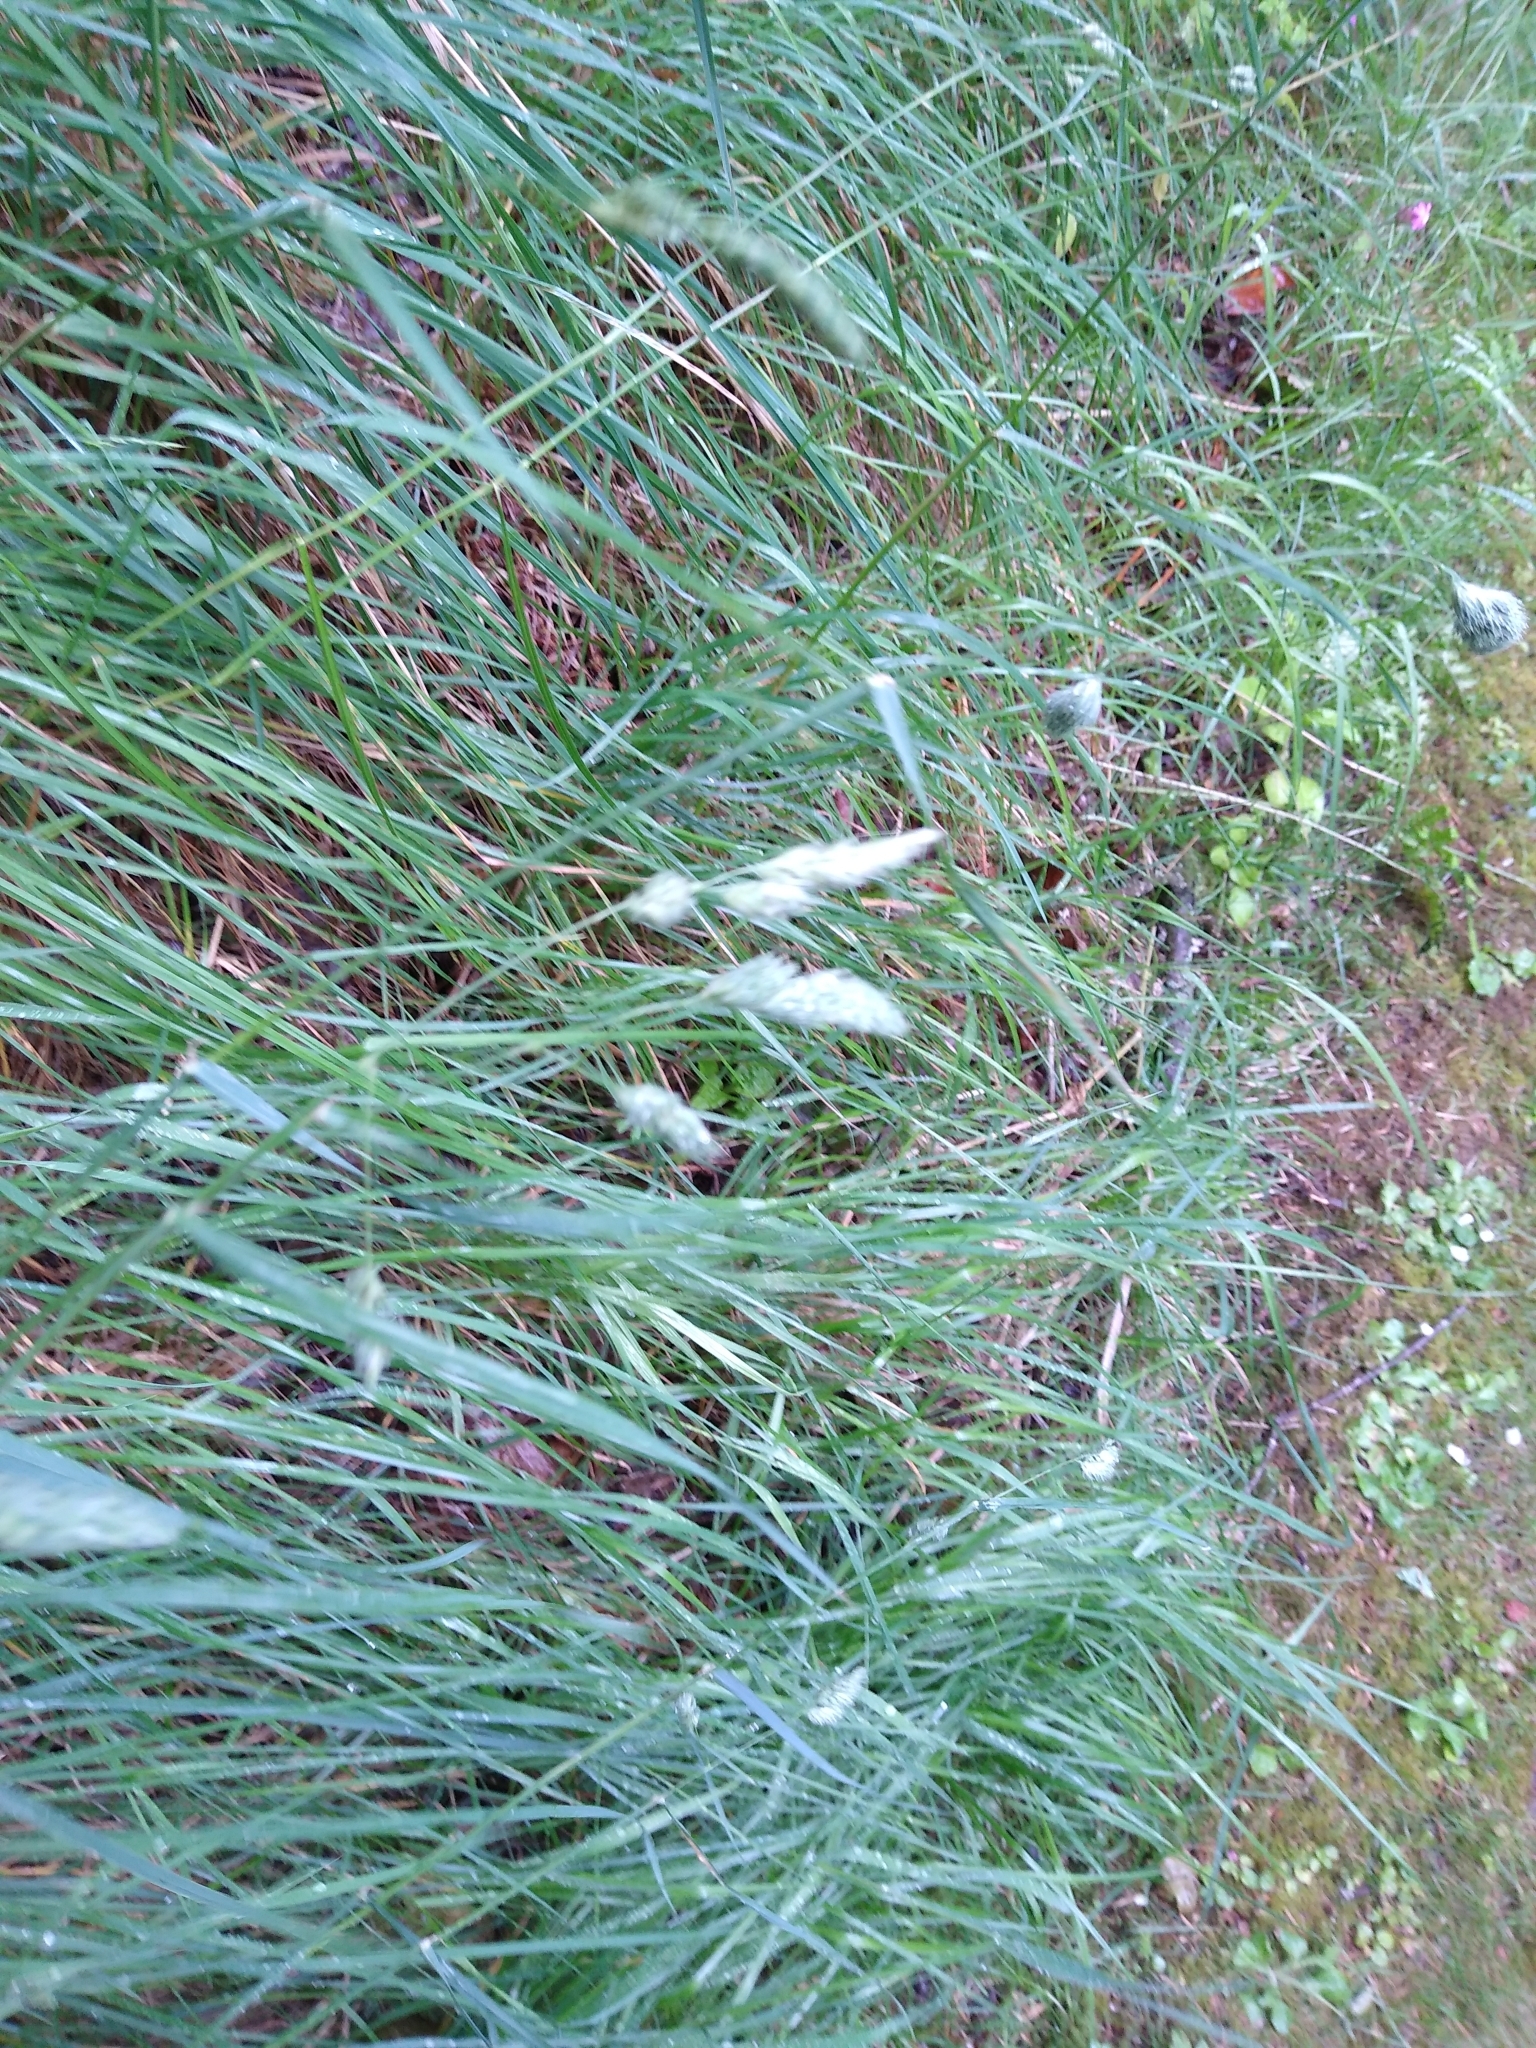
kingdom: Plantae
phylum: Tracheophyta
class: Liliopsida
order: Poales
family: Poaceae
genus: Dactylis
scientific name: Dactylis glomerata
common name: Orchardgrass
